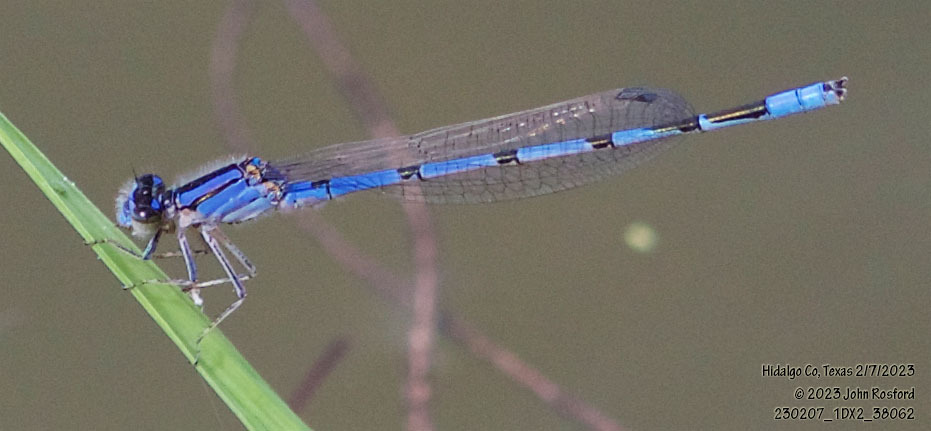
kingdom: Animalia
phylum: Arthropoda
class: Insecta
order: Odonata
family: Coenagrionidae
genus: Enallagma
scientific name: Enallagma civile
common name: Damselfly
